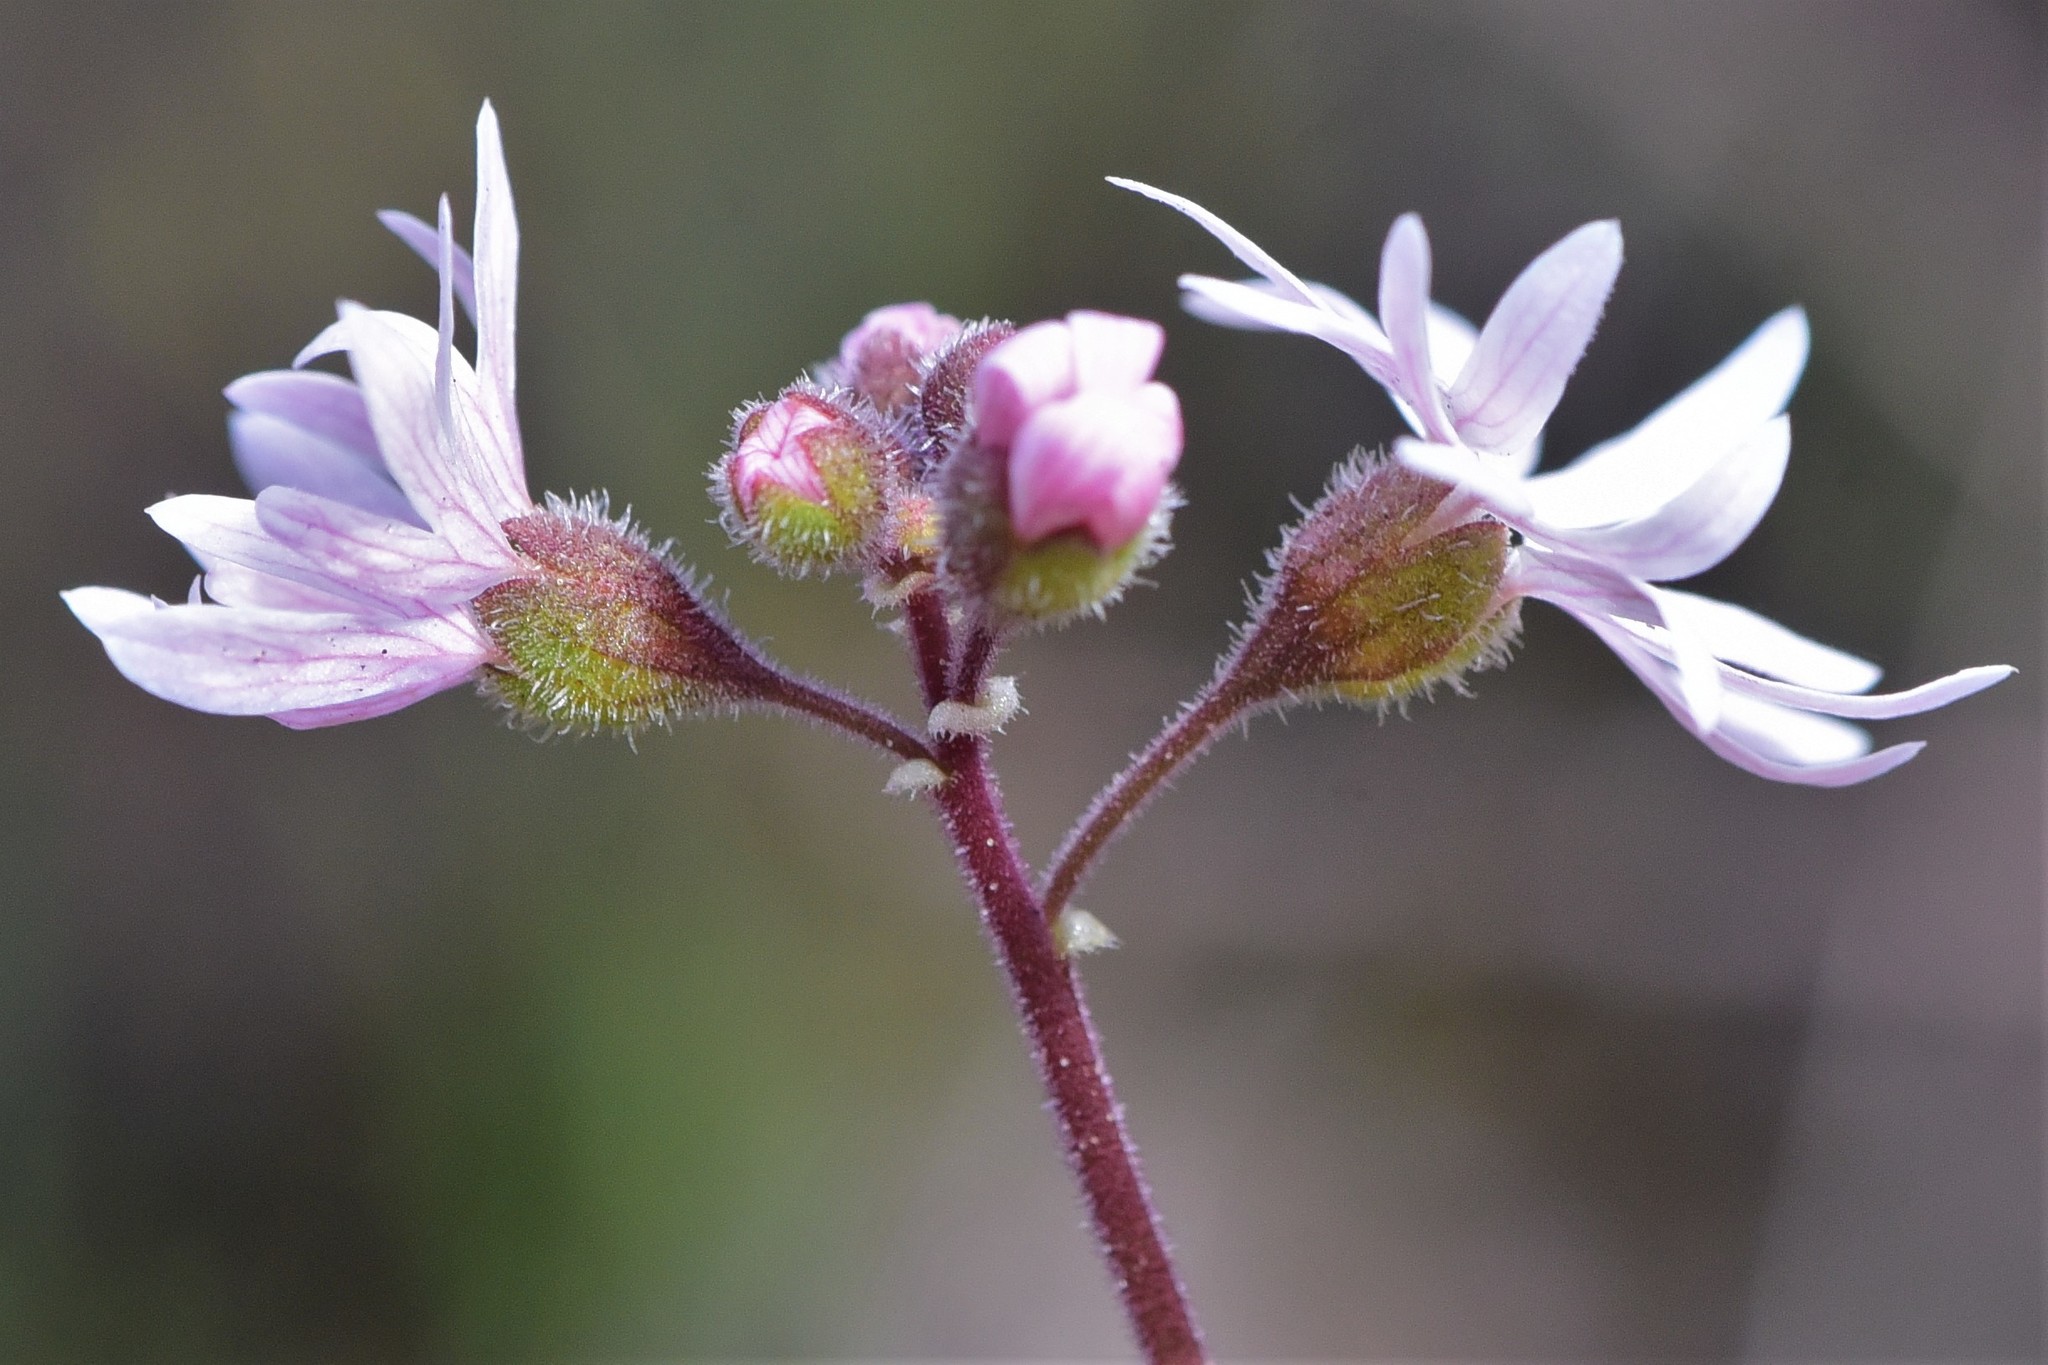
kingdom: Plantae
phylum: Tracheophyta
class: Magnoliopsida
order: Saxifragales
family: Saxifragaceae
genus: Lithophragma
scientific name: Lithophragma parviflorum
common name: Small-flowered fringe-cup
